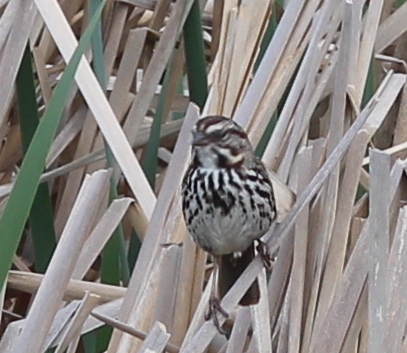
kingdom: Animalia
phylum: Chordata
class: Aves
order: Passeriformes
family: Passerellidae
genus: Melospiza
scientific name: Melospiza melodia
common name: Song sparrow
